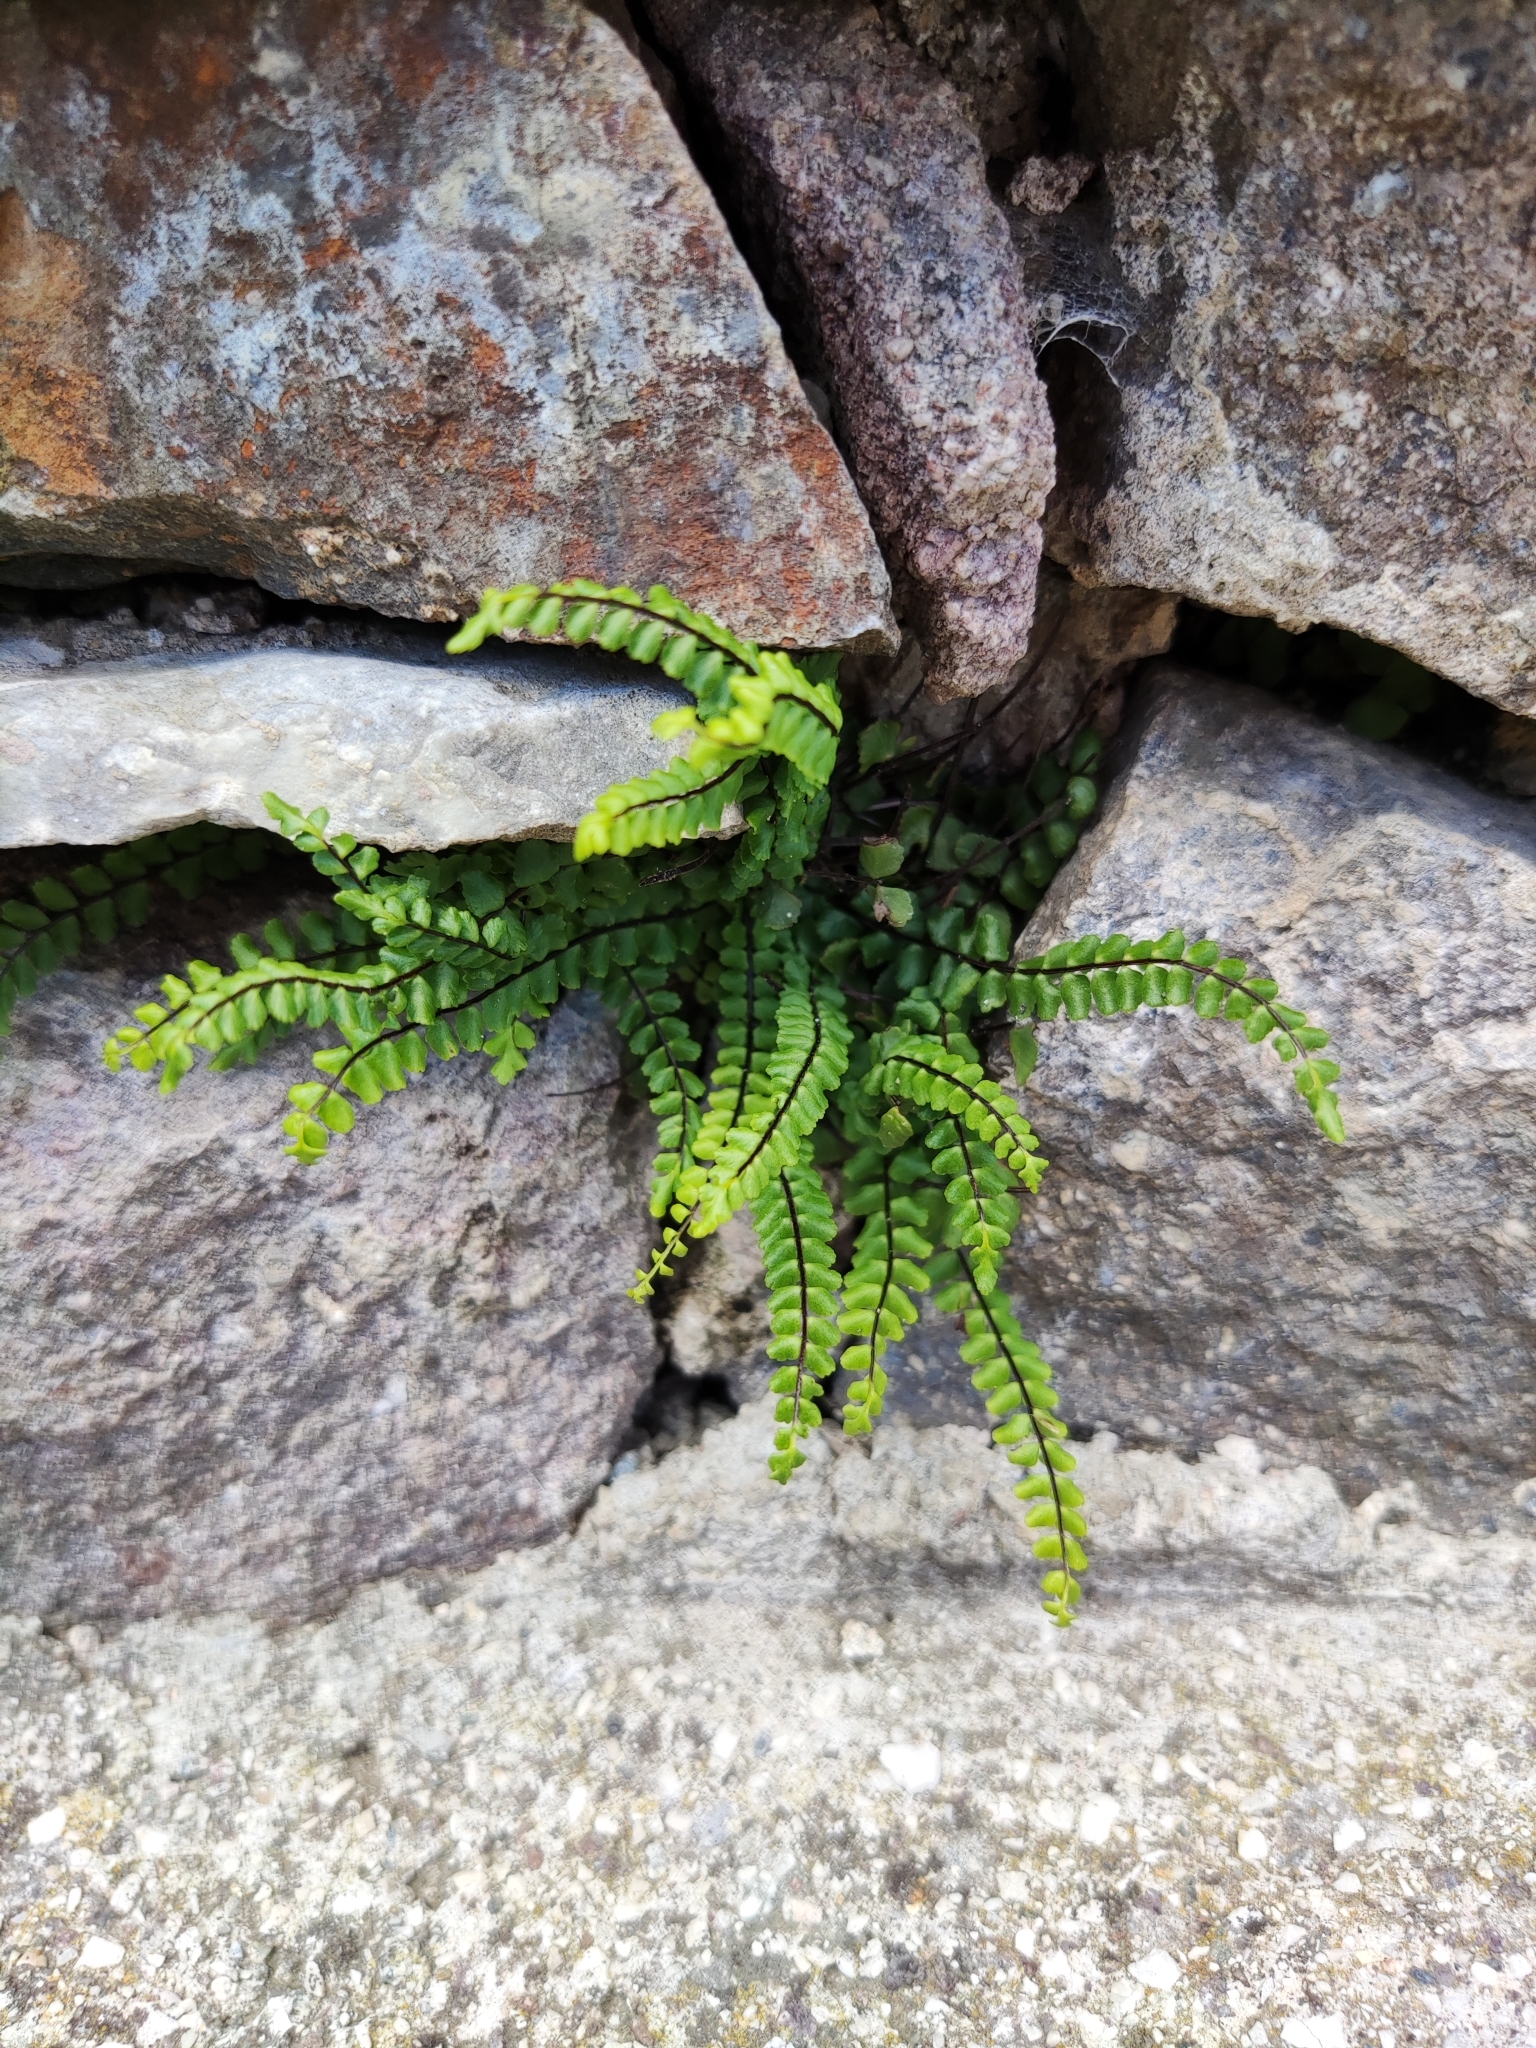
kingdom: Plantae
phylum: Tracheophyta
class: Polypodiopsida
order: Polypodiales
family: Aspleniaceae
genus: Asplenium
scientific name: Asplenium trichomanes
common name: Maidenhair spleenwort
